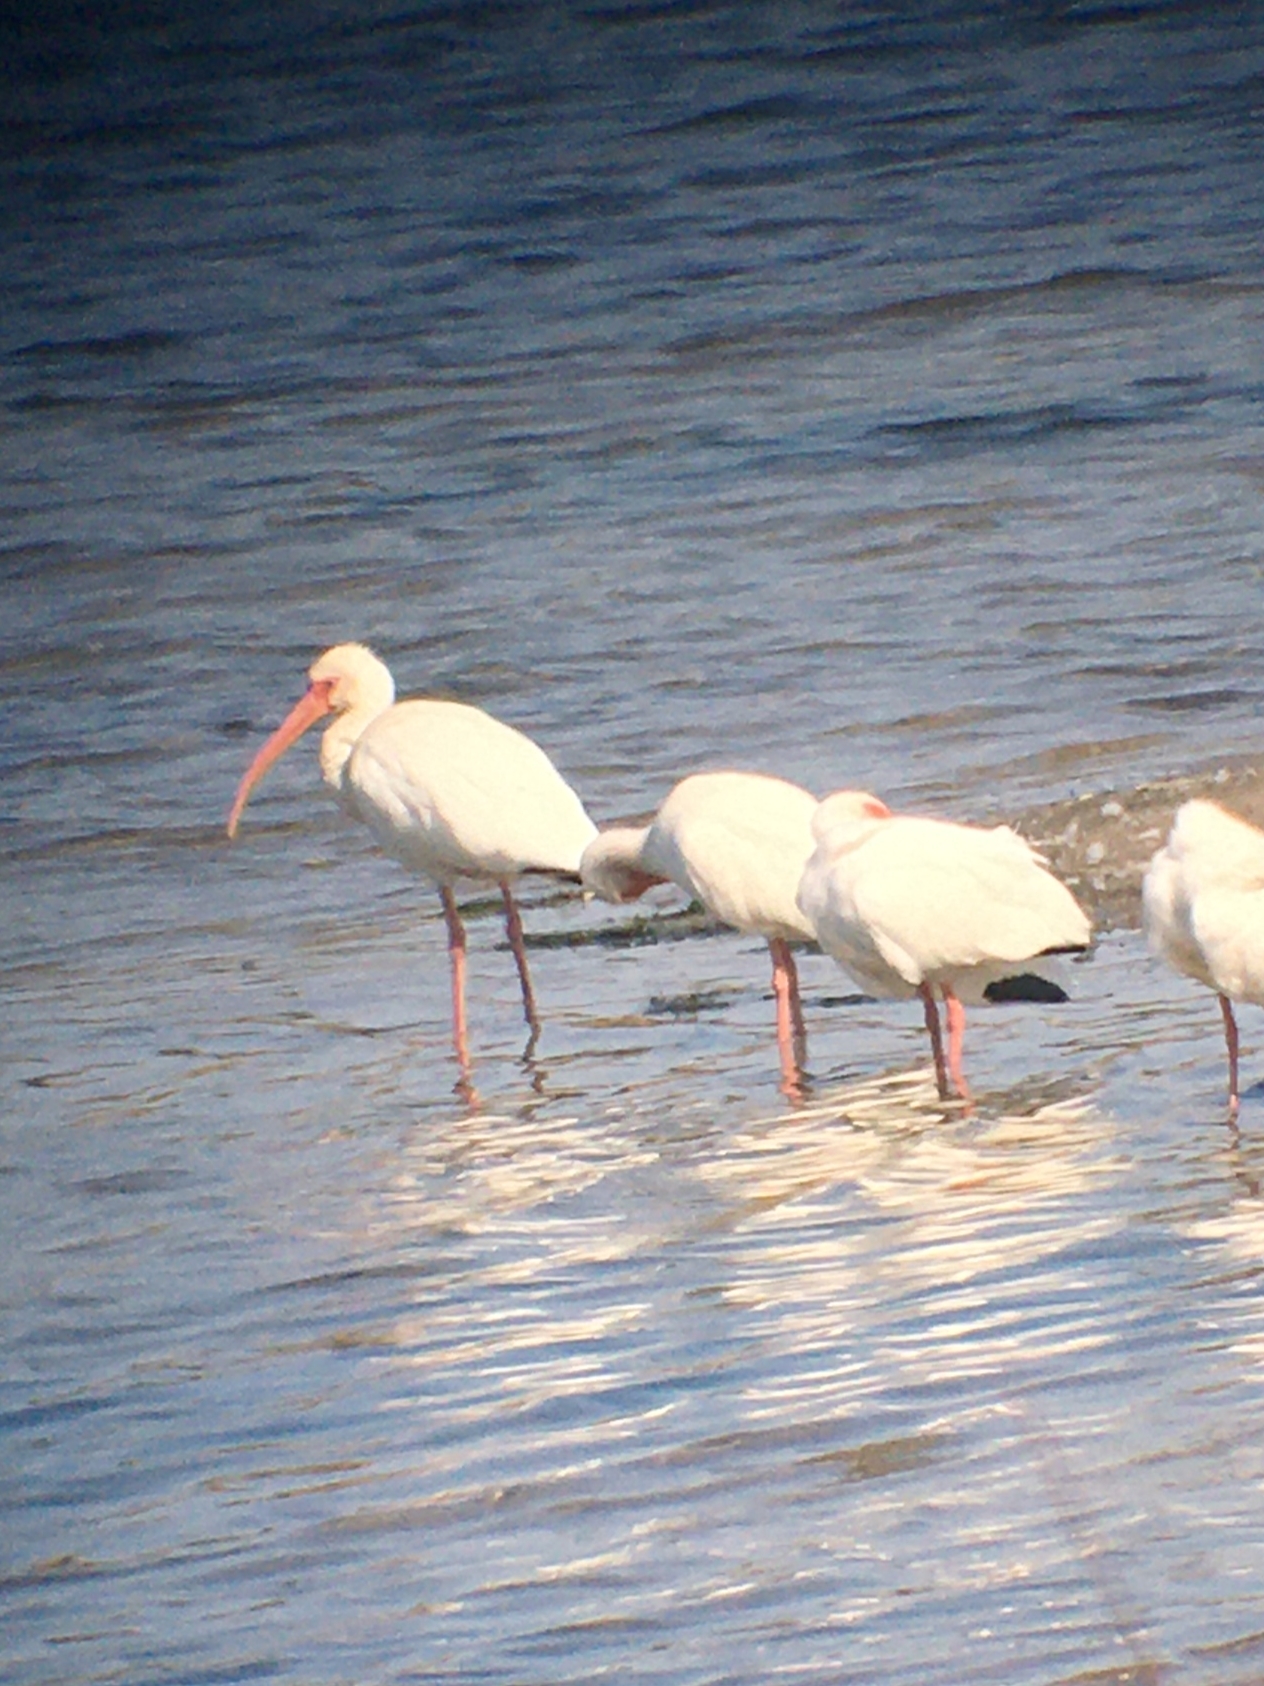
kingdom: Animalia
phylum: Chordata
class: Aves
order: Pelecaniformes
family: Threskiornithidae
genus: Eudocimus
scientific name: Eudocimus albus
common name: White ibis
